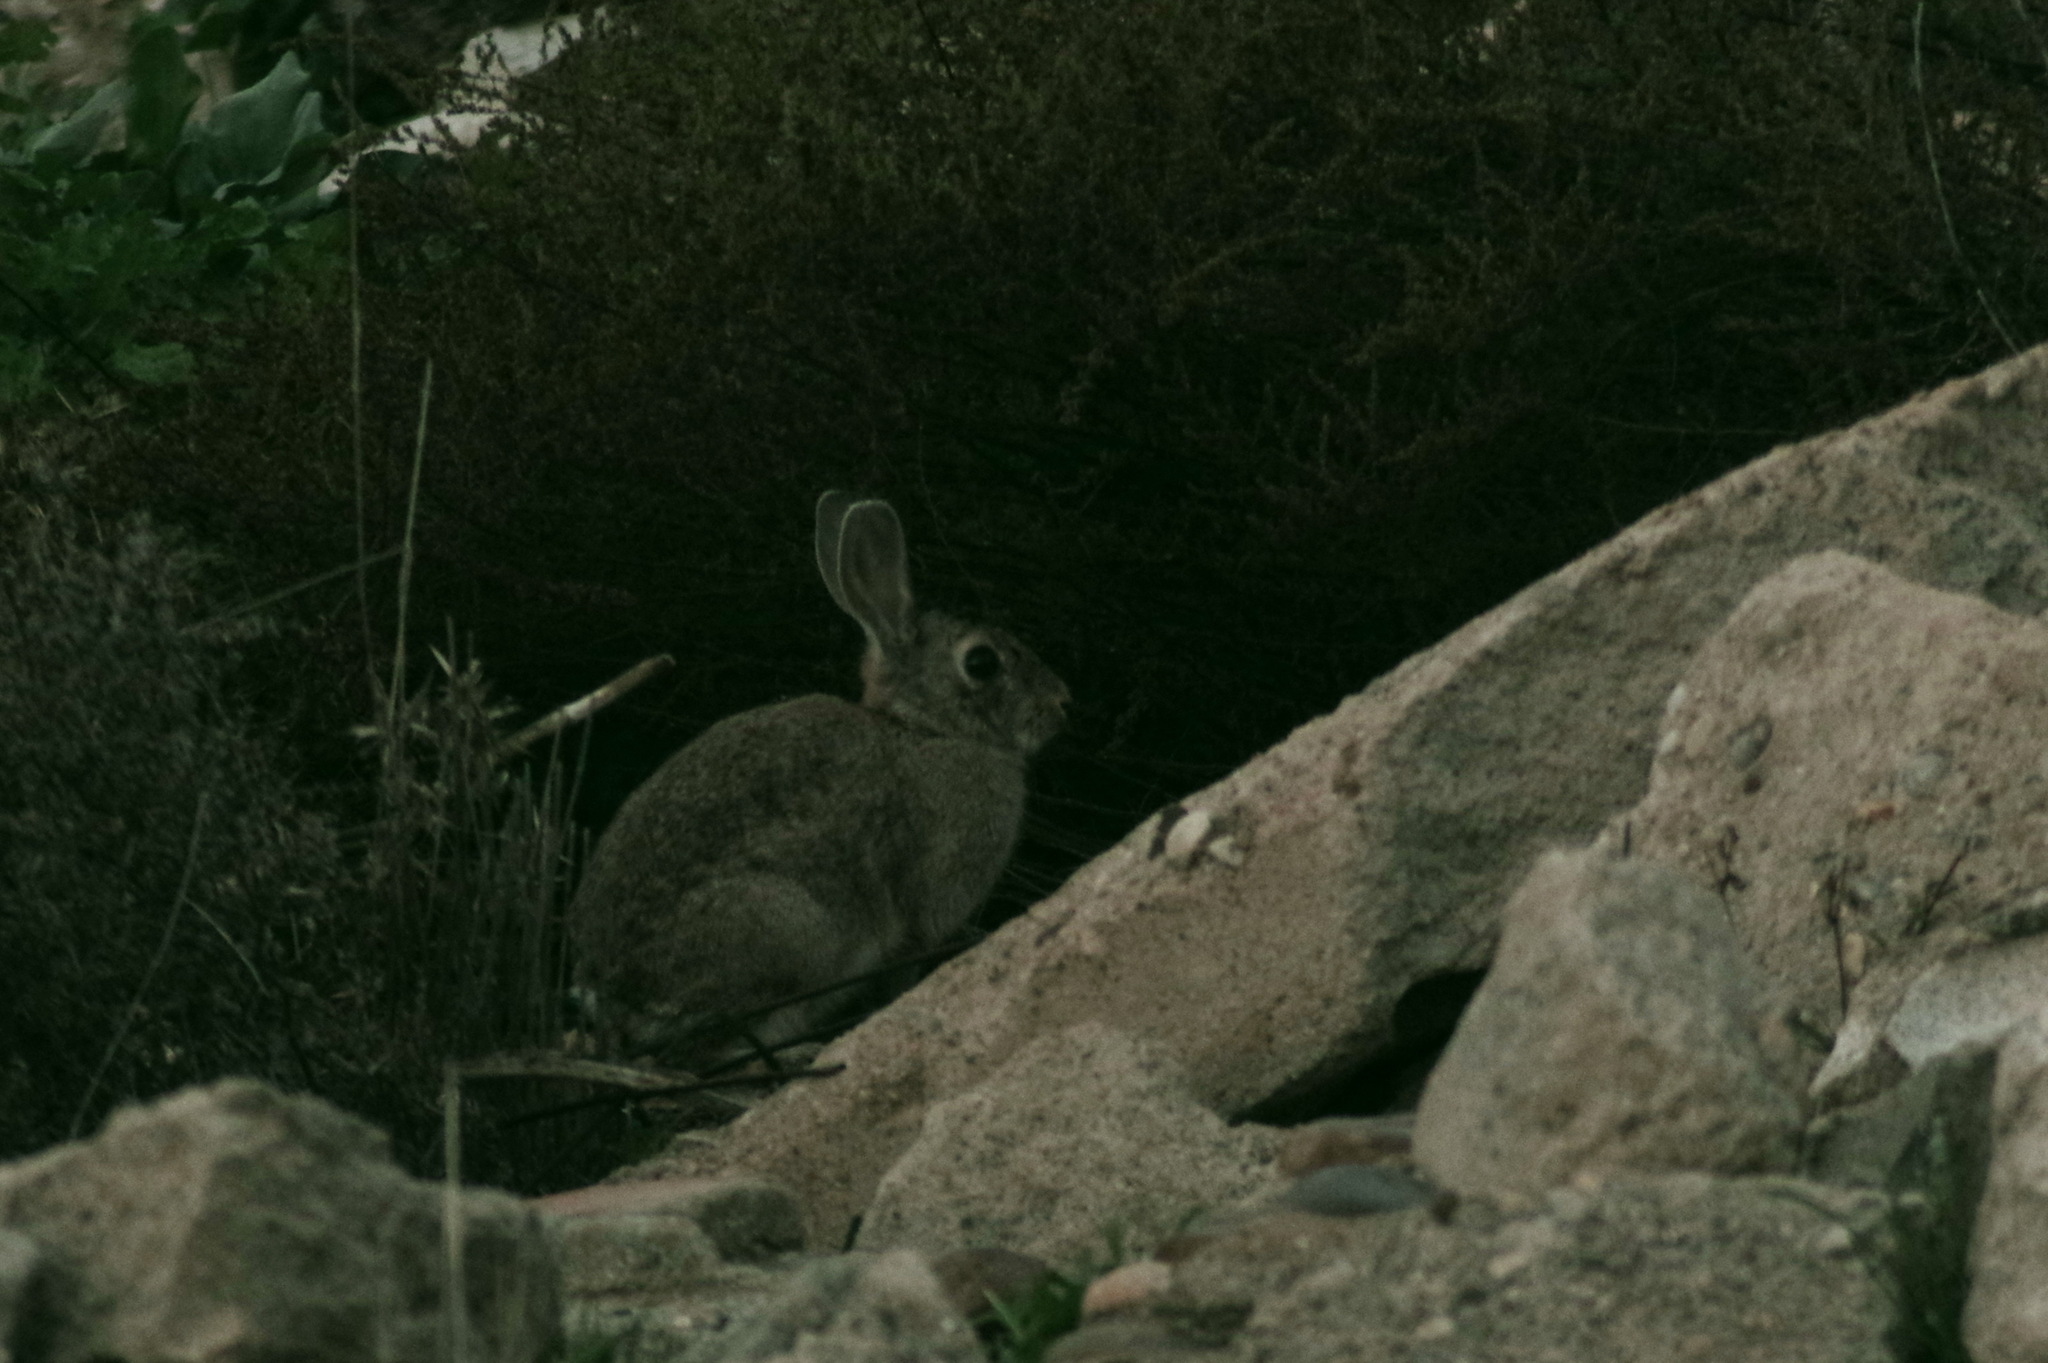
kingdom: Animalia
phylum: Chordata
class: Mammalia
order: Lagomorpha
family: Leporidae
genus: Oryctolagus
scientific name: Oryctolagus cuniculus
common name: European rabbit
